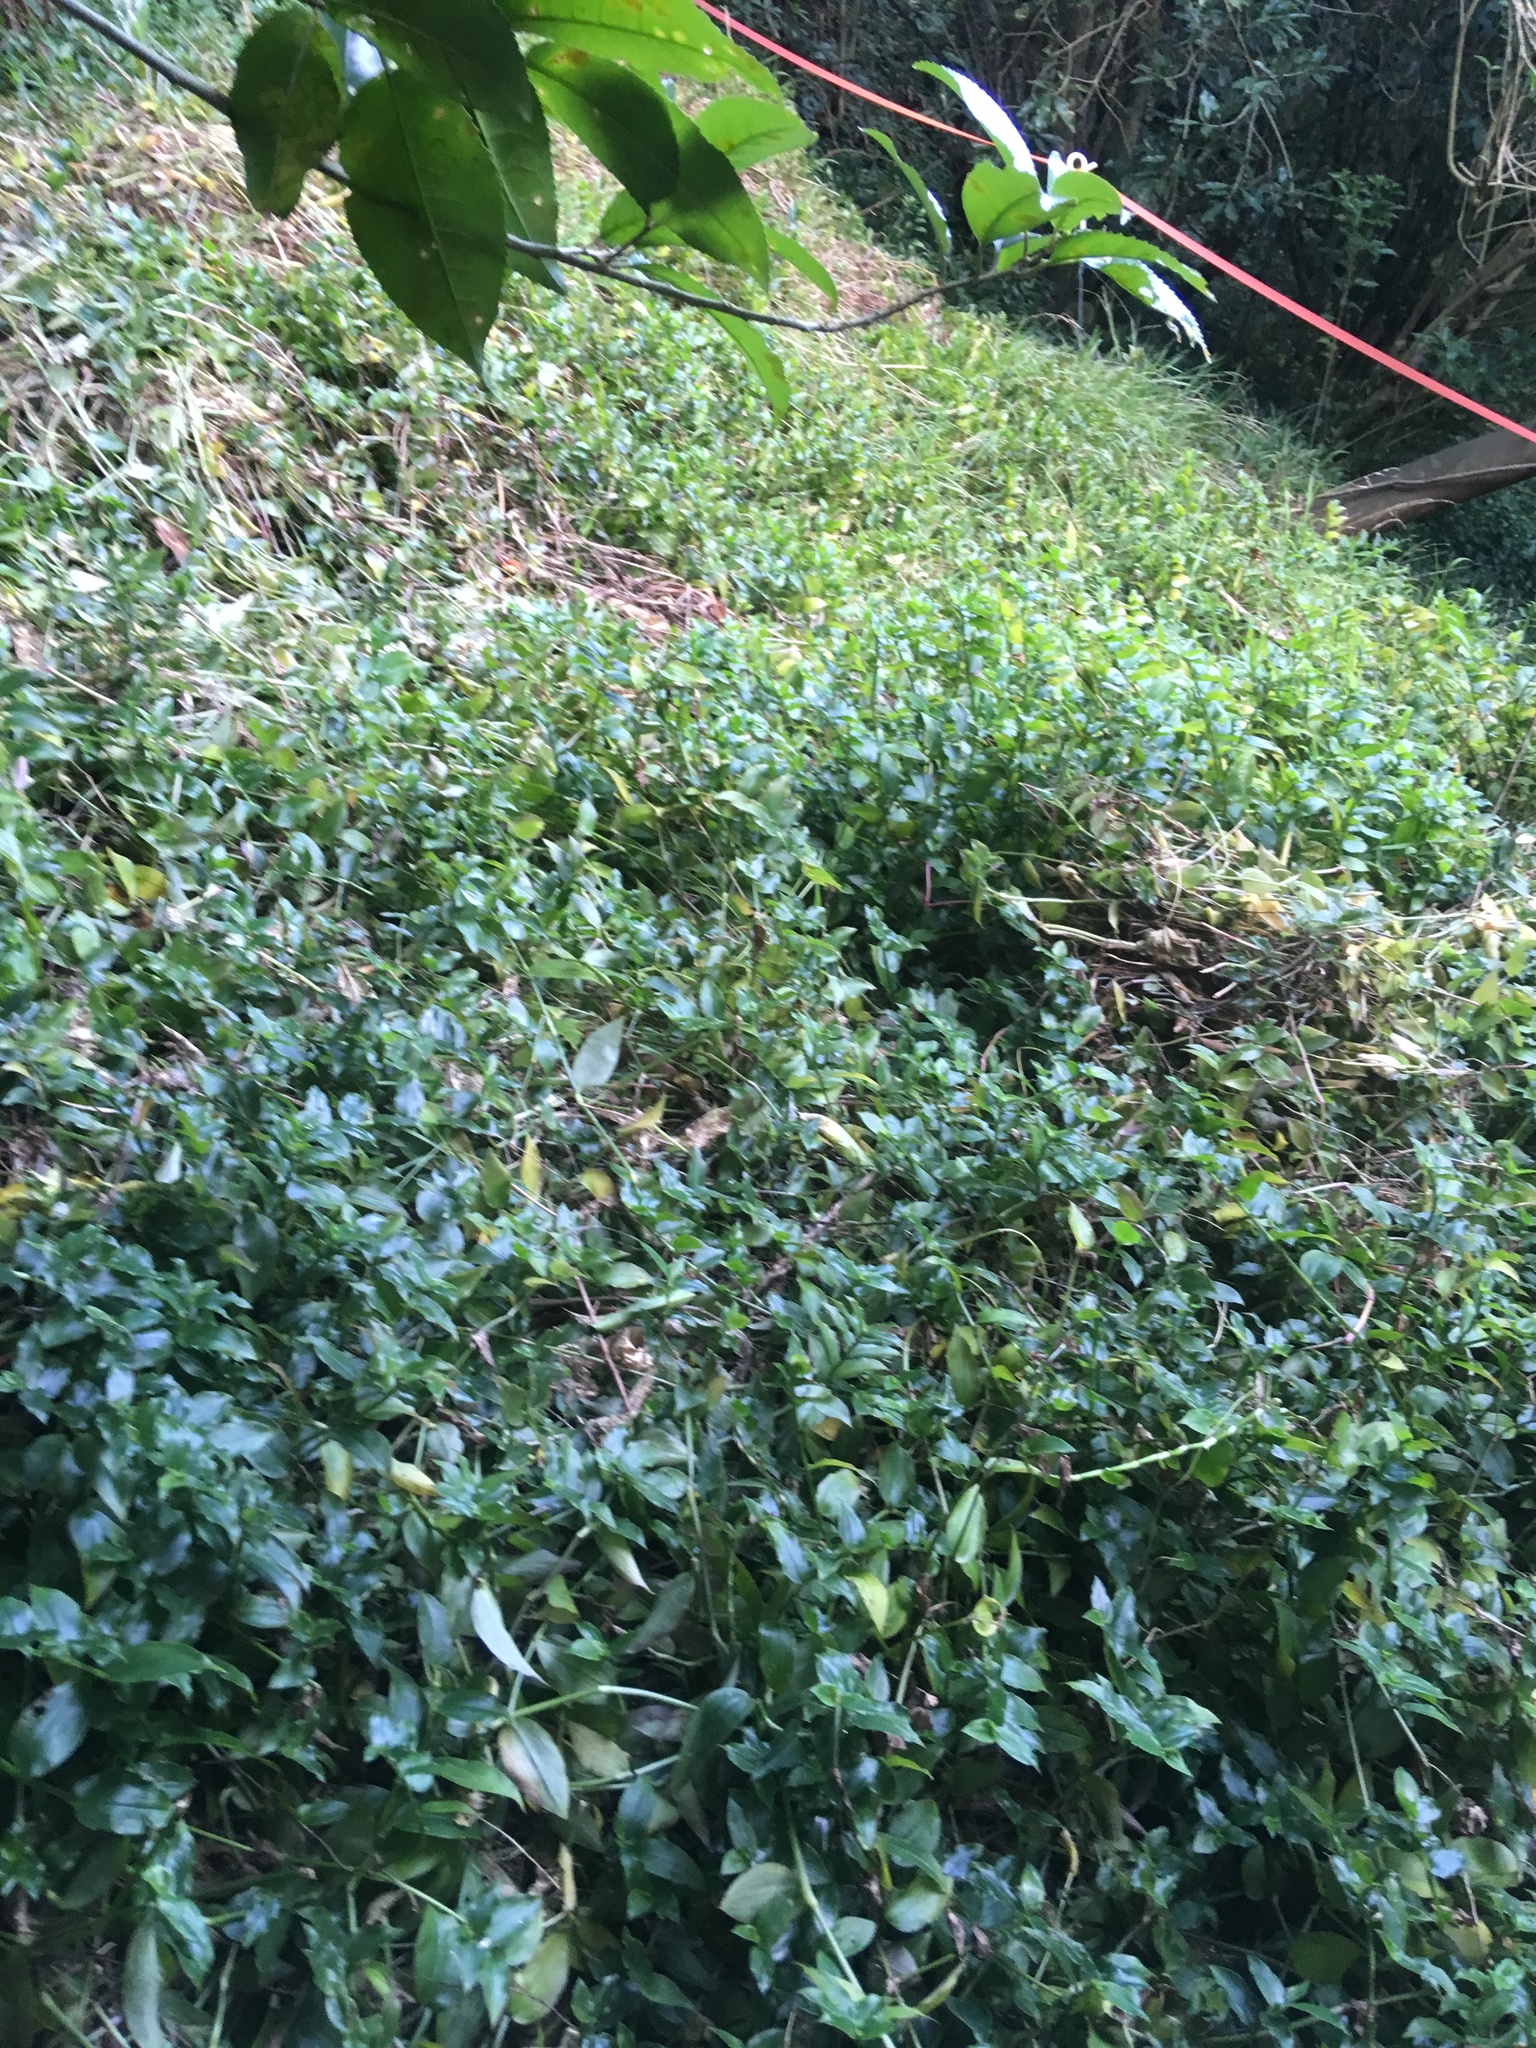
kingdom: Plantae
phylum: Tracheophyta
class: Liliopsida
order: Commelinales
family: Commelinaceae
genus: Tradescantia
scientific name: Tradescantia fluminensis
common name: Wandering-jew
